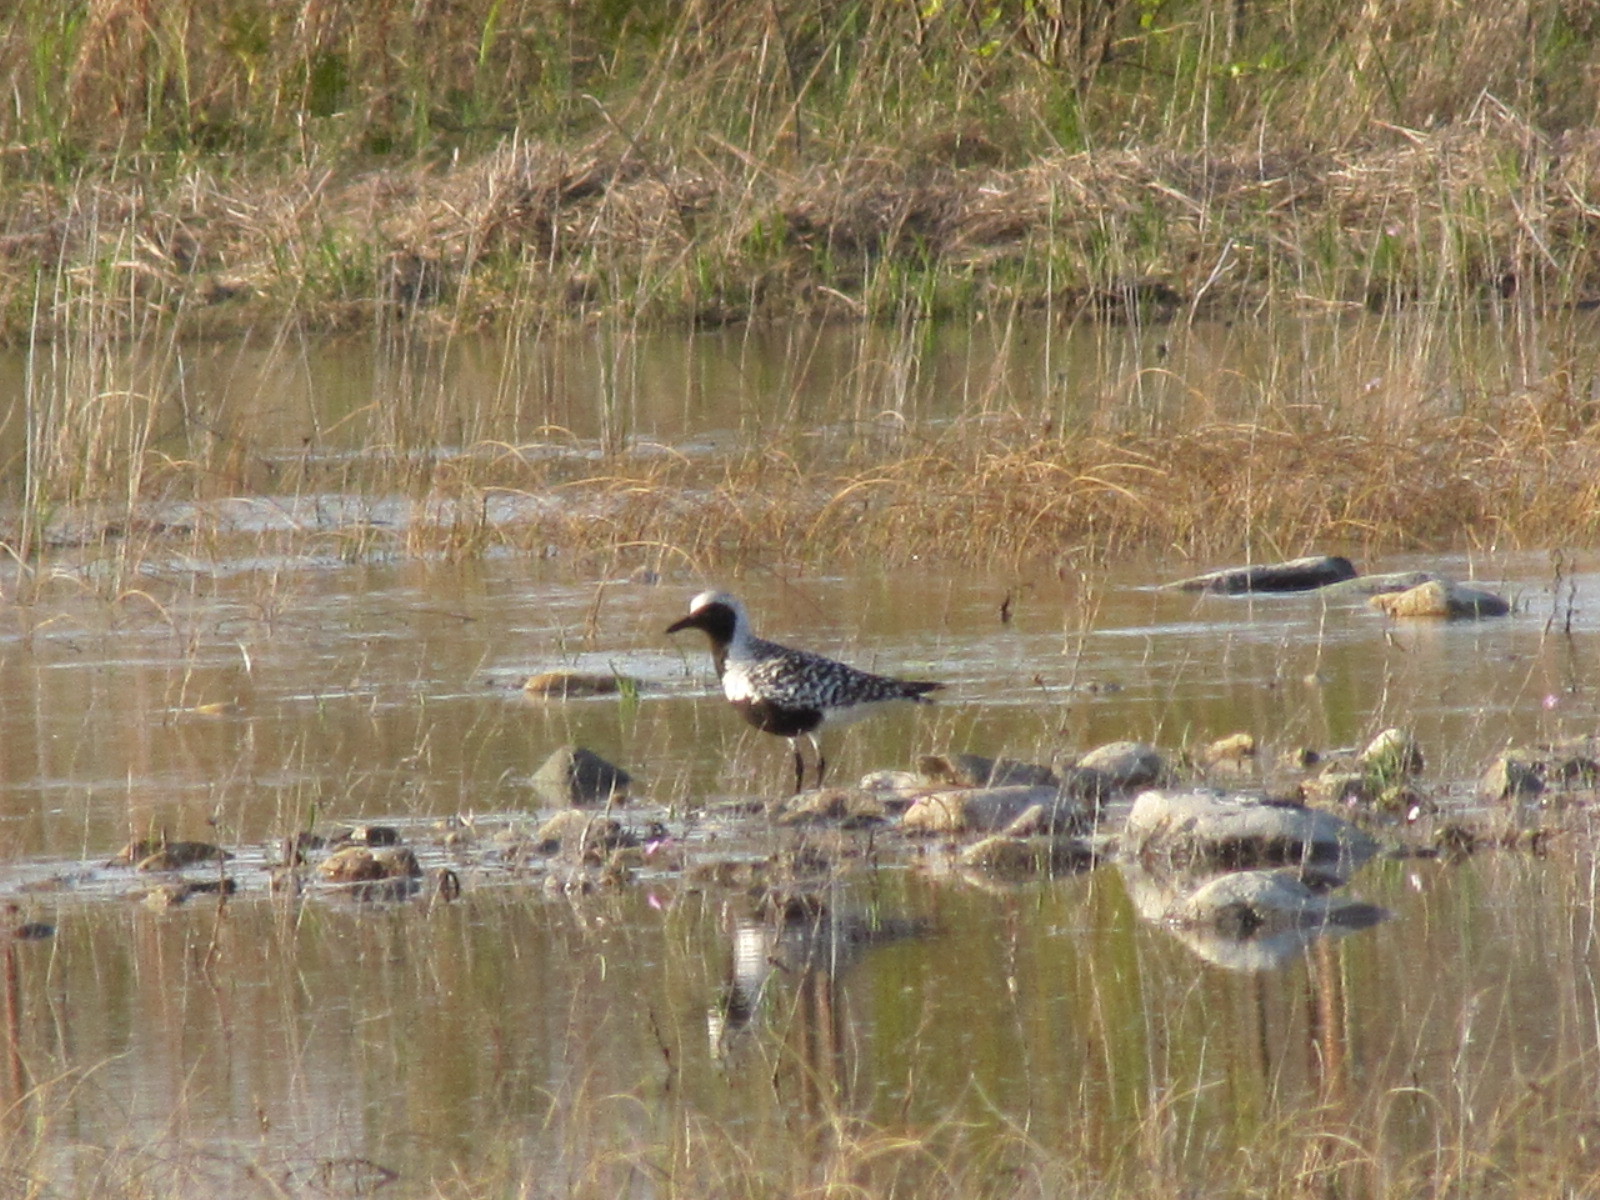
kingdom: Animalia
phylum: Chordata
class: Aves
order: Charadriiformes
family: Charadriidae
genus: Pluvialis
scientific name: Pluvialis squatarola
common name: Grey plover
